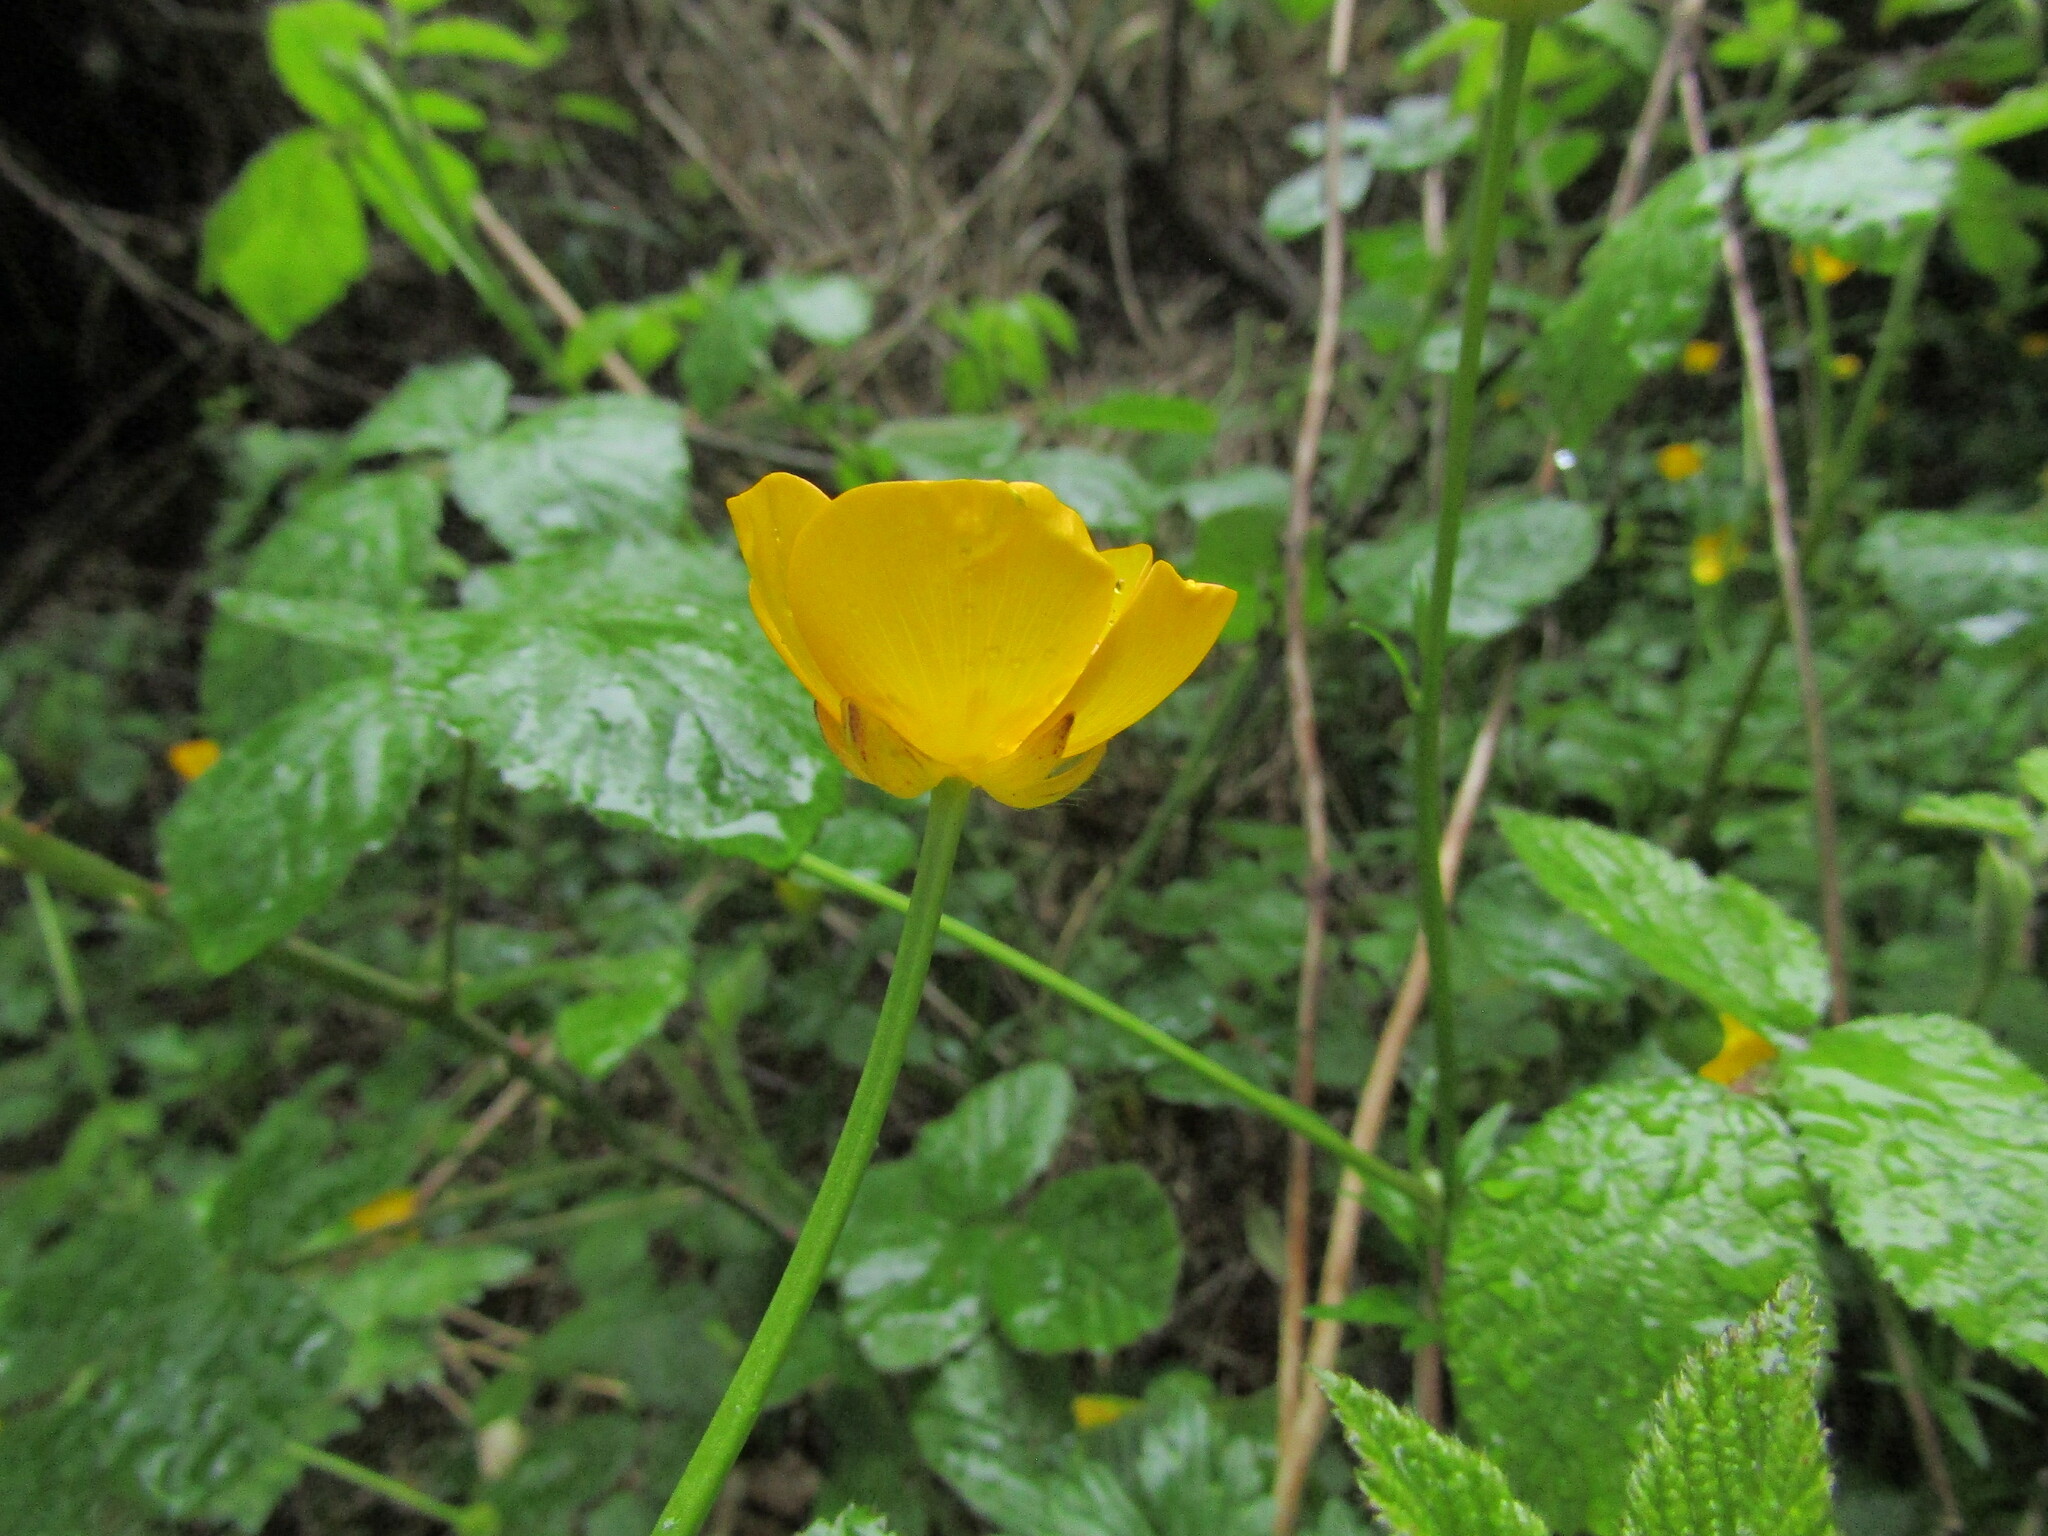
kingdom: Plantae
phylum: Tracheophyta
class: Magnoliopsida
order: Ranunculales
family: Ranunculaceae
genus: Ranunculus
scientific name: Ranunculus repens
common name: Creeping buttercup
